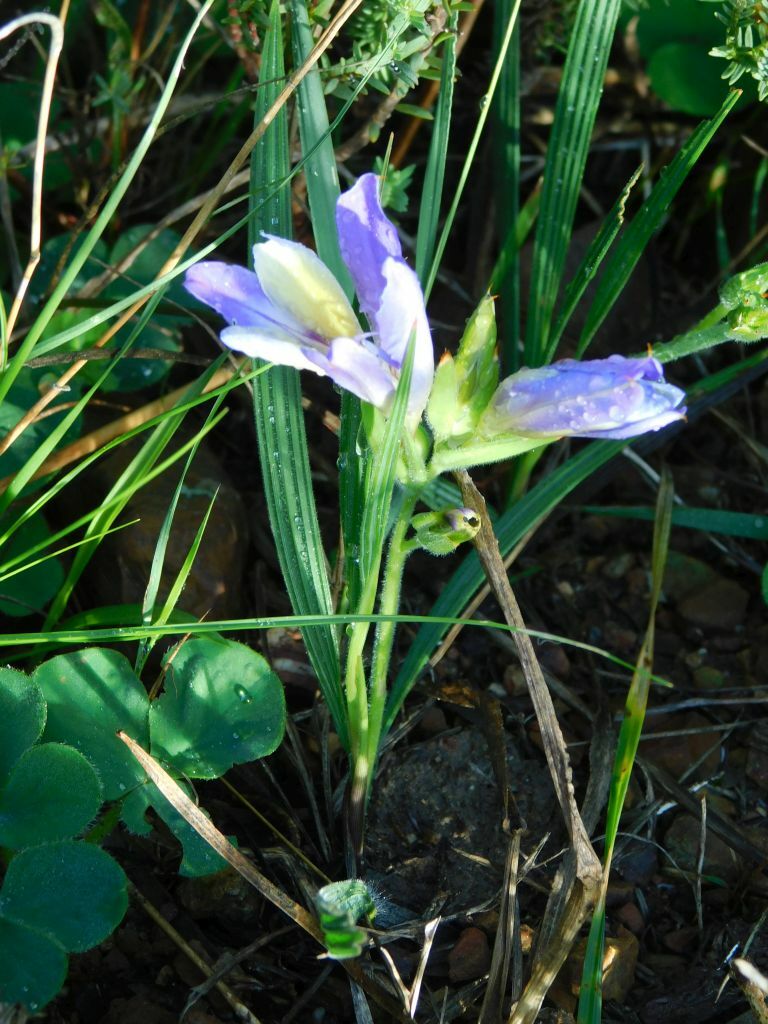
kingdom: Plantae
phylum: Tracheophyta
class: Liliopsida
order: Asparagales
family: Iridaceae
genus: Babiana
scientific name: Babiana patula
